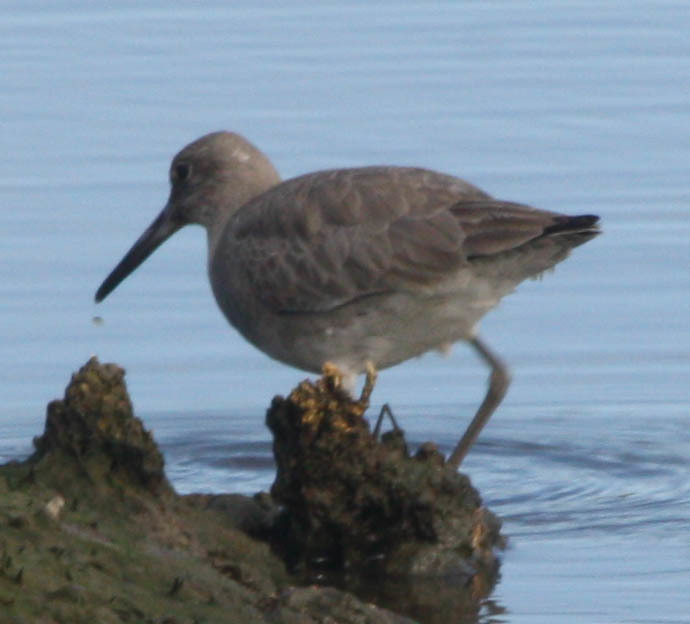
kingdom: Animalia
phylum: Chordata
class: Aves
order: Charadriiformes
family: Scolopacidae
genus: Tringa
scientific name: Tringa semipalmata
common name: Willet
